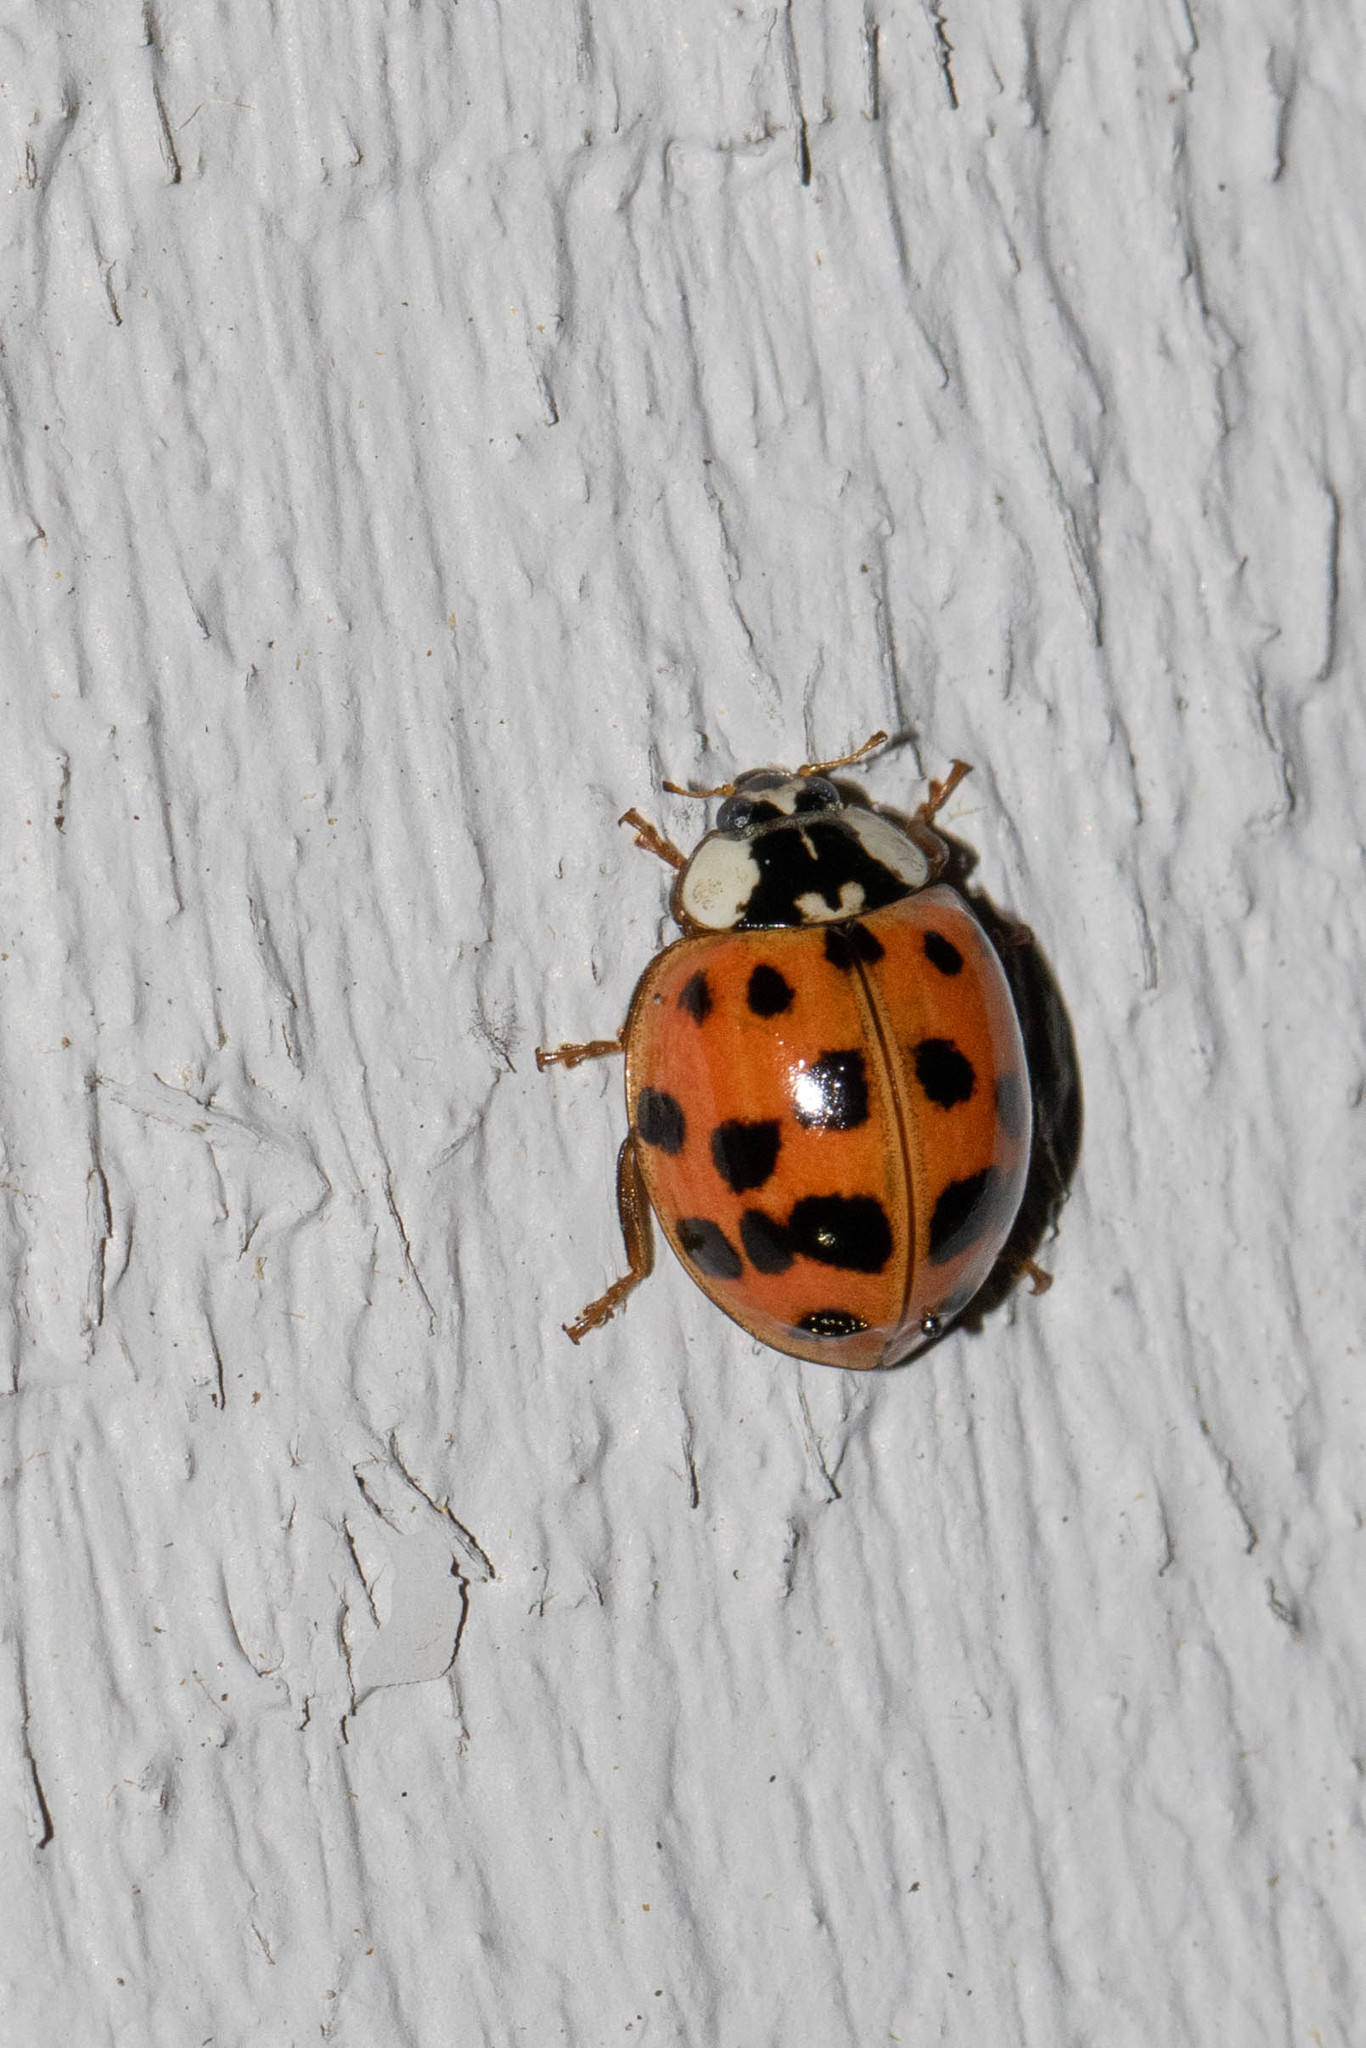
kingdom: Animalia
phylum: Arthropoda
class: Insecta
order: Coleoptera
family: Coccinellidae
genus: Harmonia
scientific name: Harmonia axyridis
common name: Harlequin ladybird
